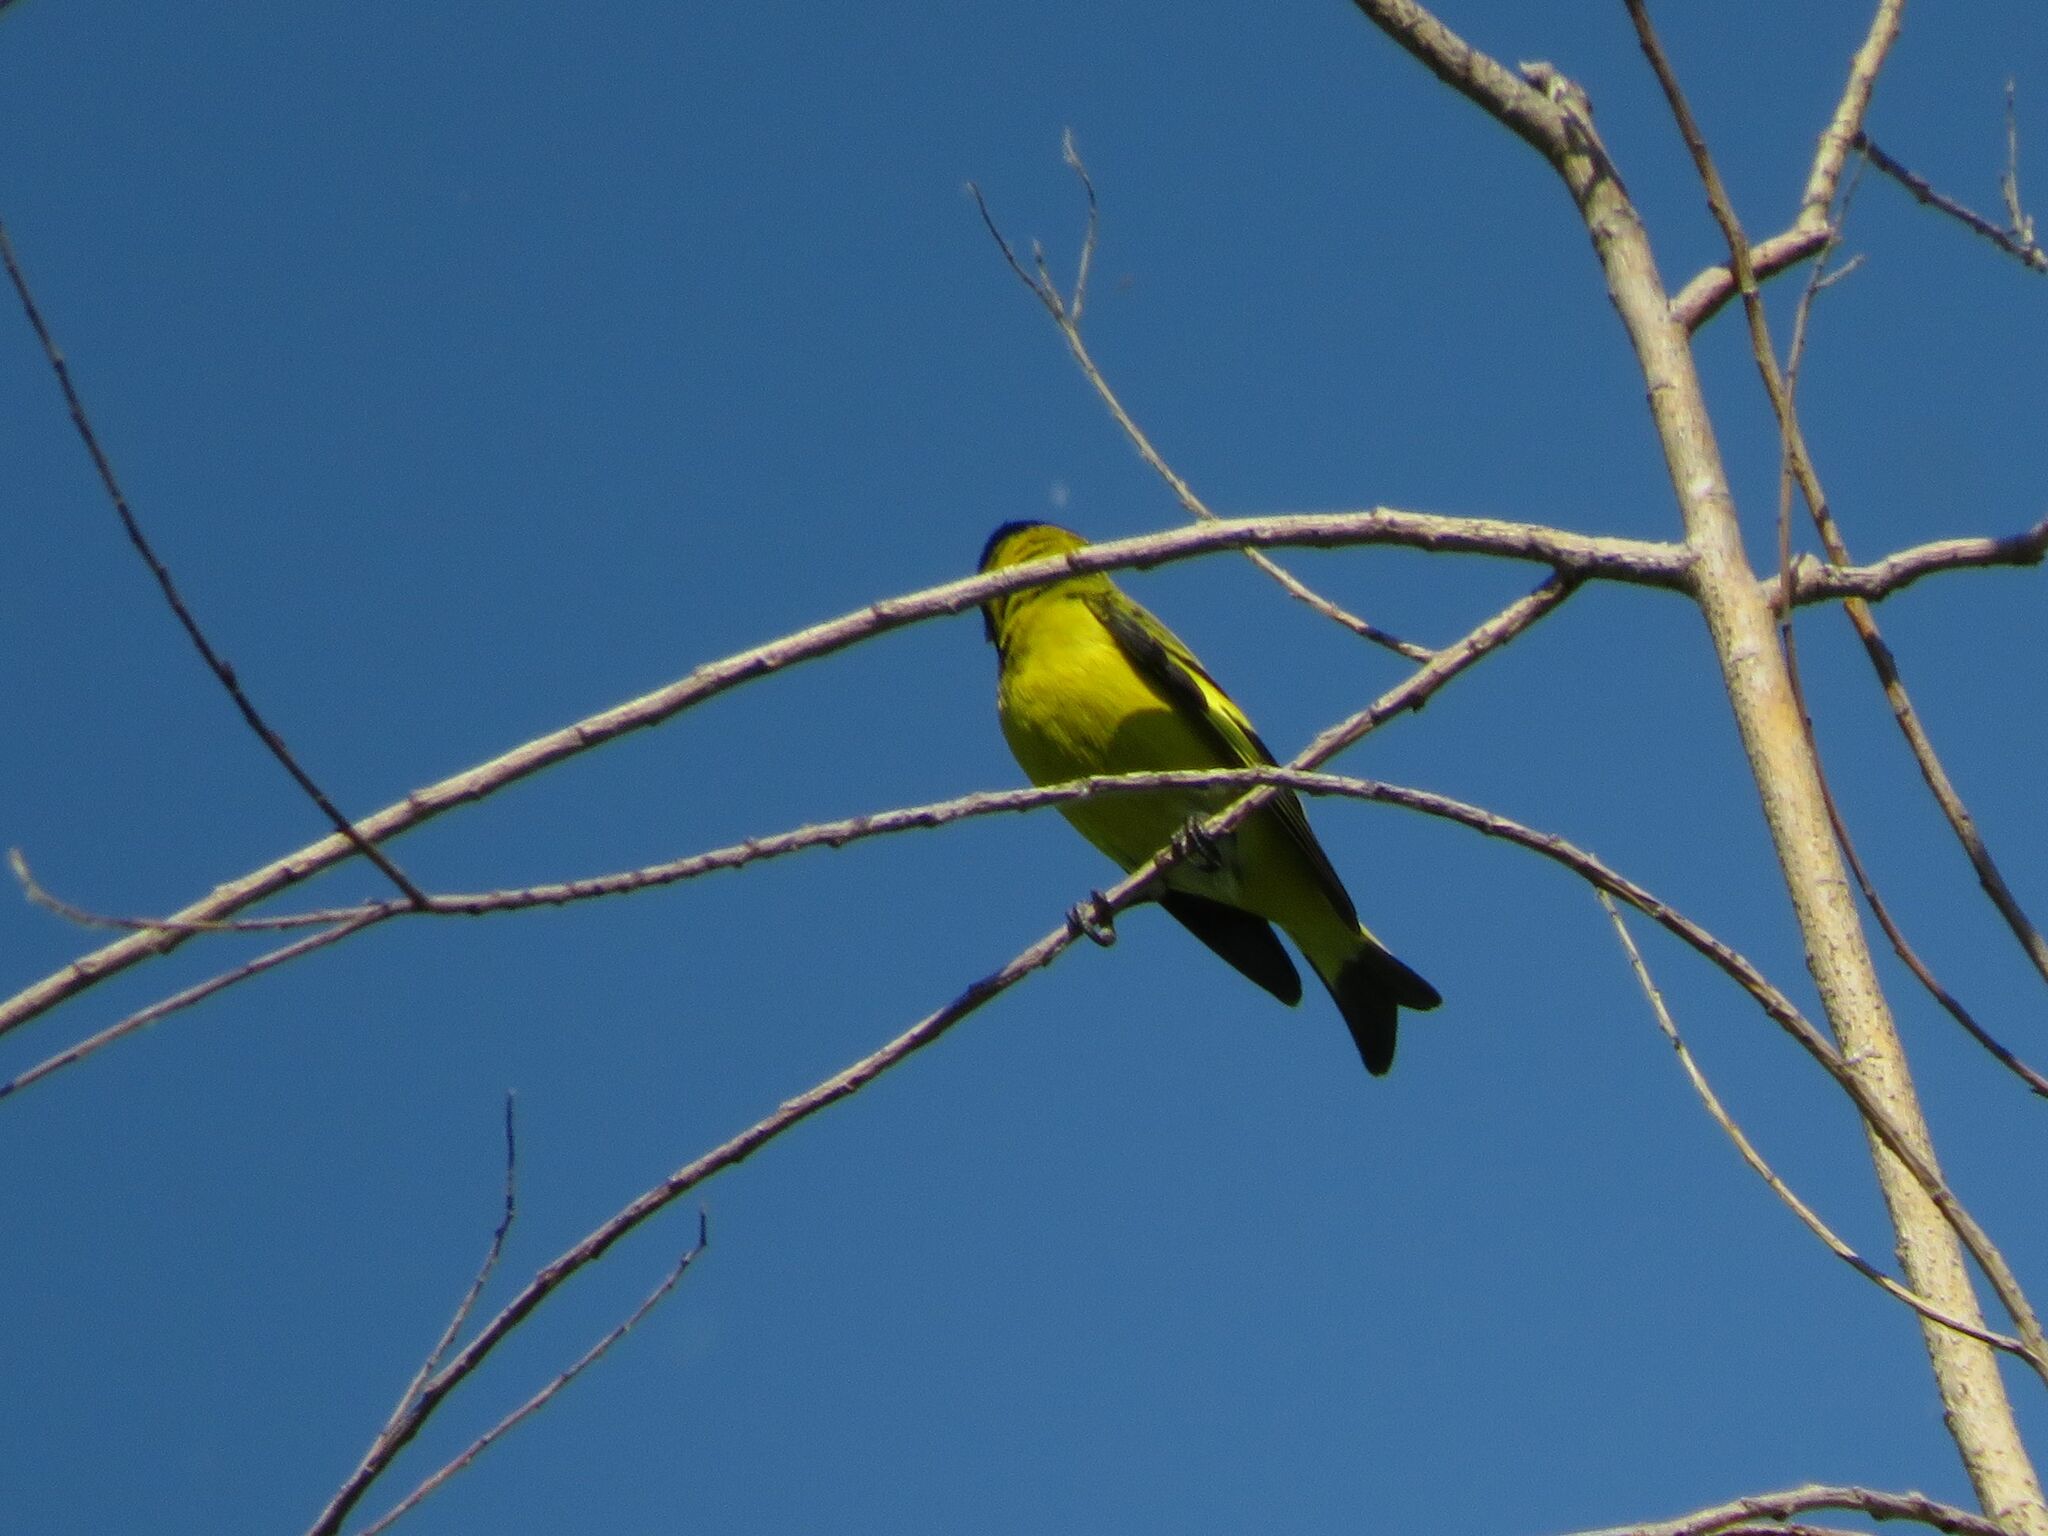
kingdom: Animalia
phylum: Chordata
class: Aves
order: Passeriformes
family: Fringillidae
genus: Spinus
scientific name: Spinus magellanicus
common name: Hooded siskin
